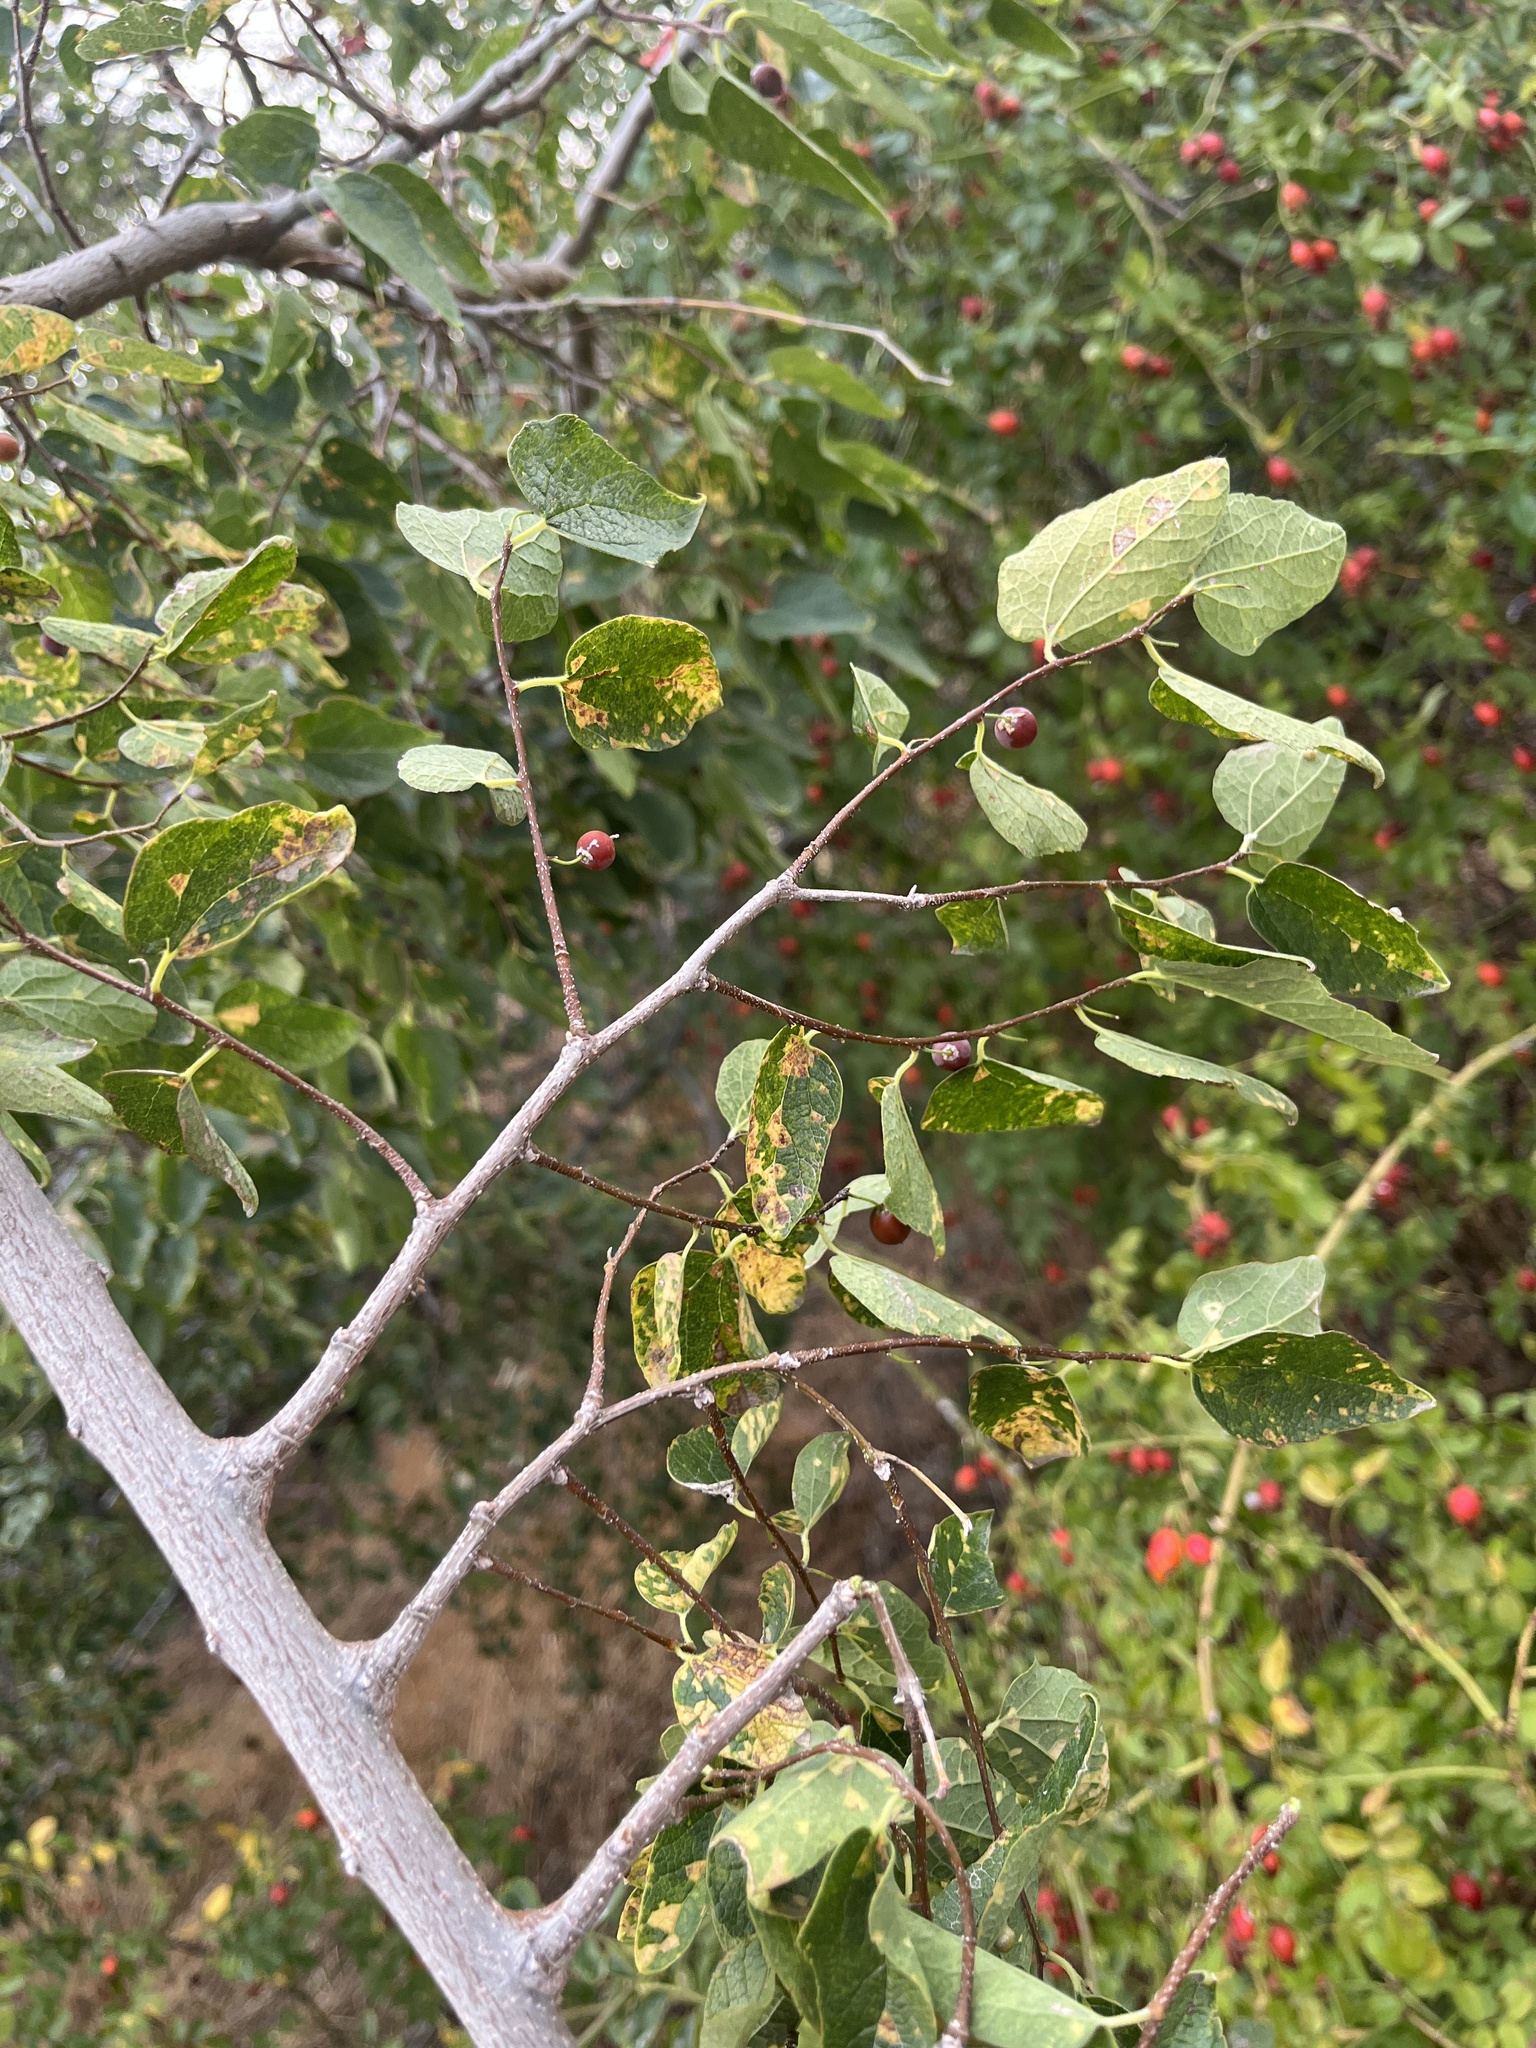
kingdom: Plantae
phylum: Tracheophyta
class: Magnoliopsida
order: Rosales
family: Cannabaceae
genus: Celtis
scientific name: Celtis reticulata
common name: Netleaf hackberry
